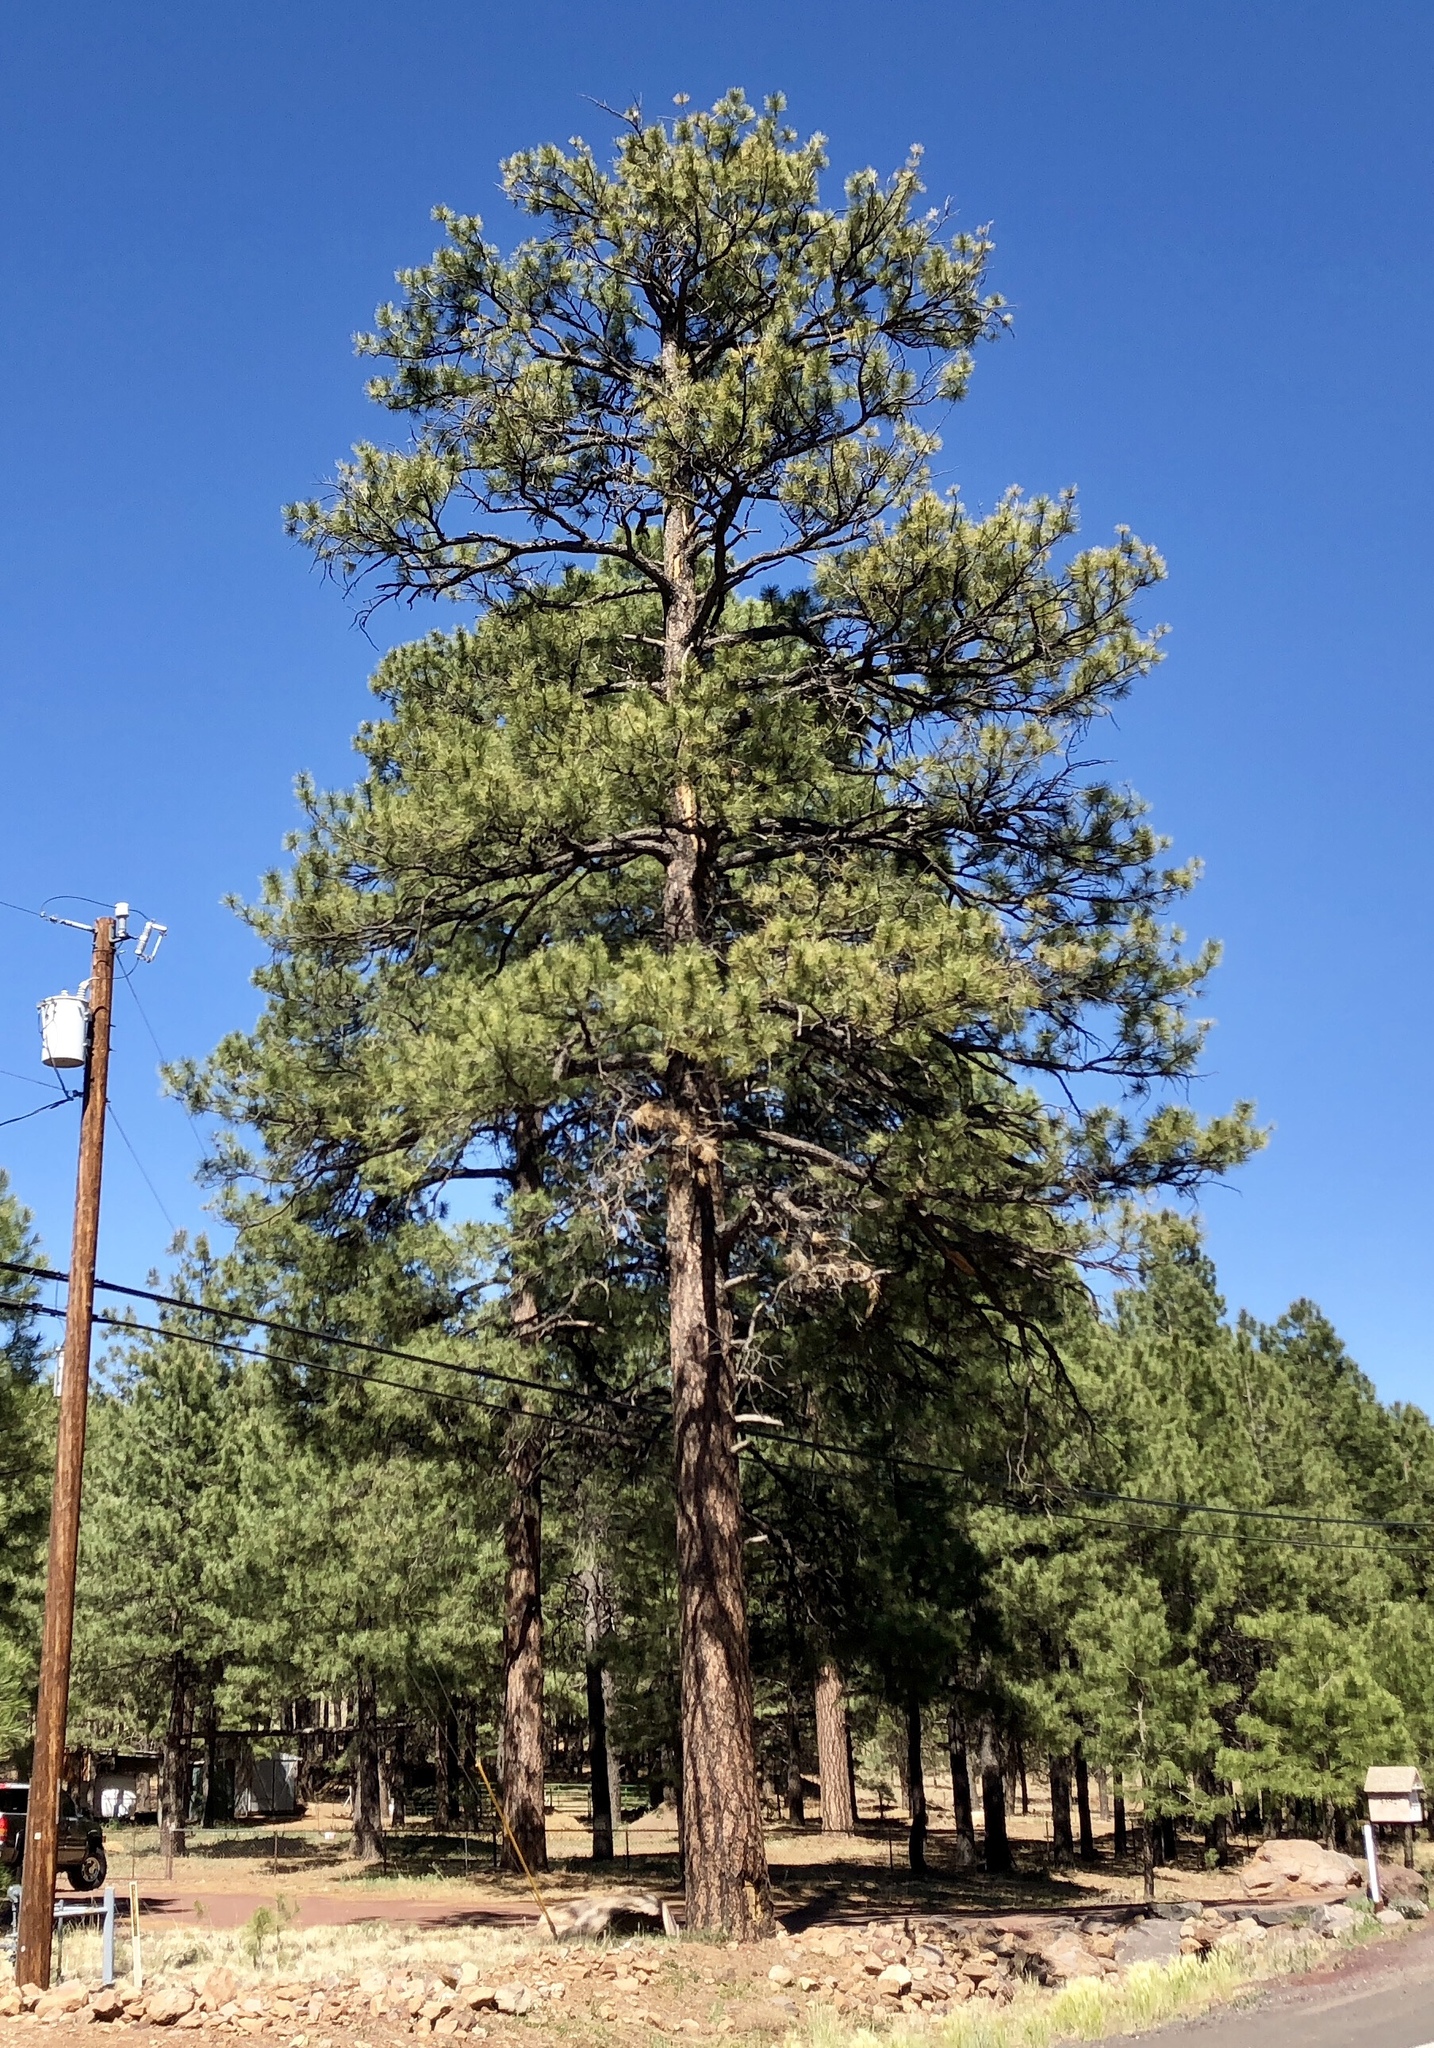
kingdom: Plantae
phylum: Tracheophyta
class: Pinopsida
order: Pinales
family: Pinaceae
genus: Pinus
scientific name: Pinus ponderosa
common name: Western yellow-pine
